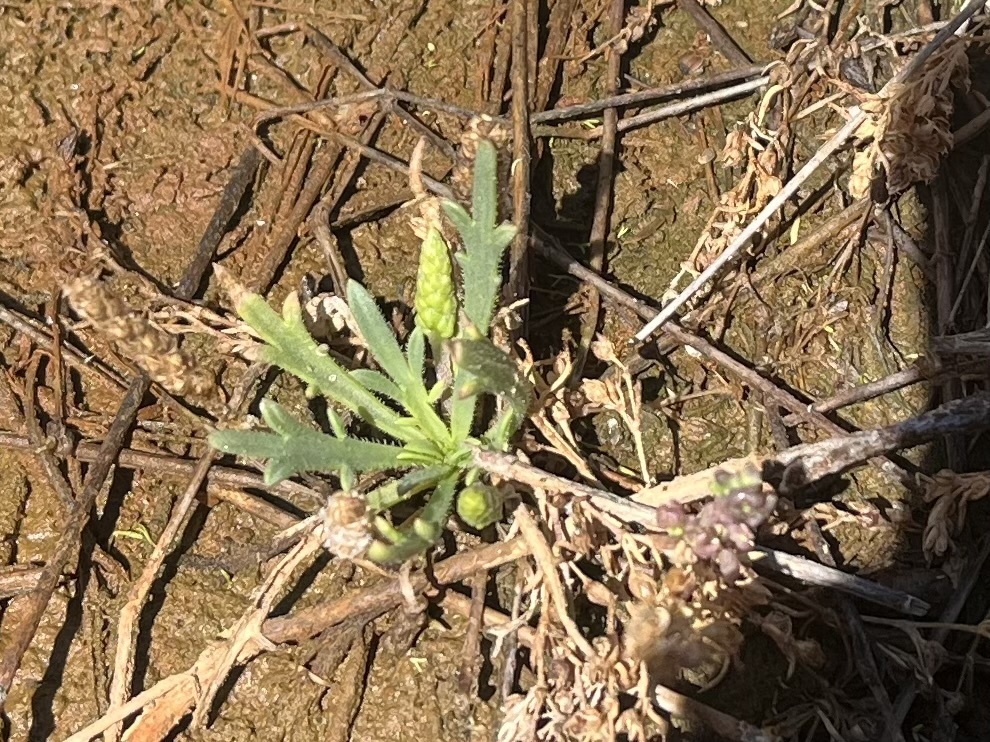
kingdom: Plantae
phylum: Tracheophyta
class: Magnoliopsida
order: Lamiales
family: Plantaginaceae
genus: Plantago
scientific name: Plantago coronopus
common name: Buck's-horn plantain
